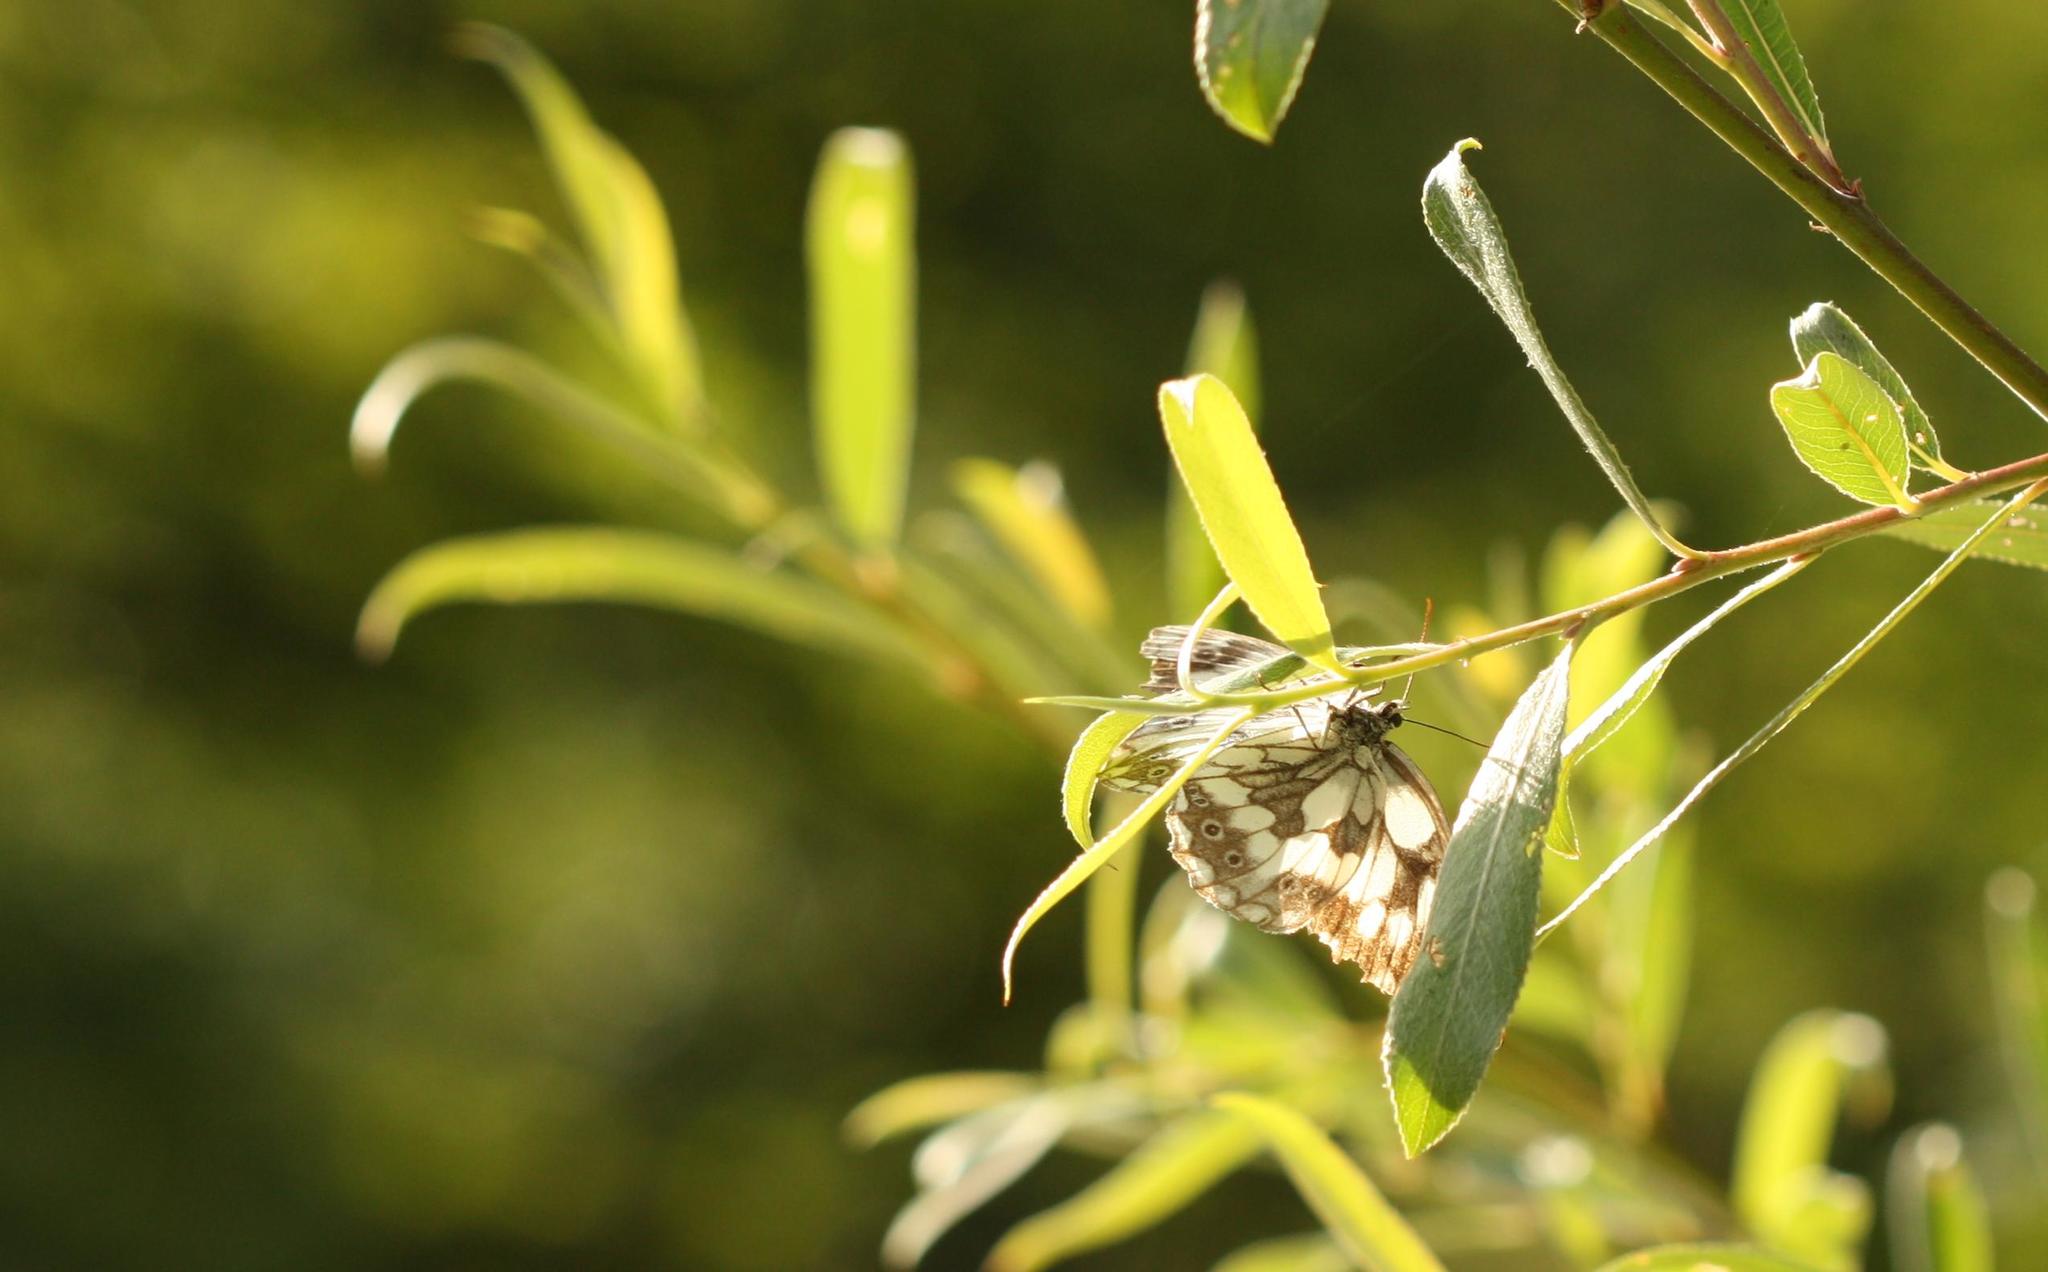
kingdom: Animalia
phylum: Arthropoda
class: Insecta
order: Lepidoptera
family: Nymphalidae
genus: Melanargia
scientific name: Melanargia galathea
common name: Marbled white
